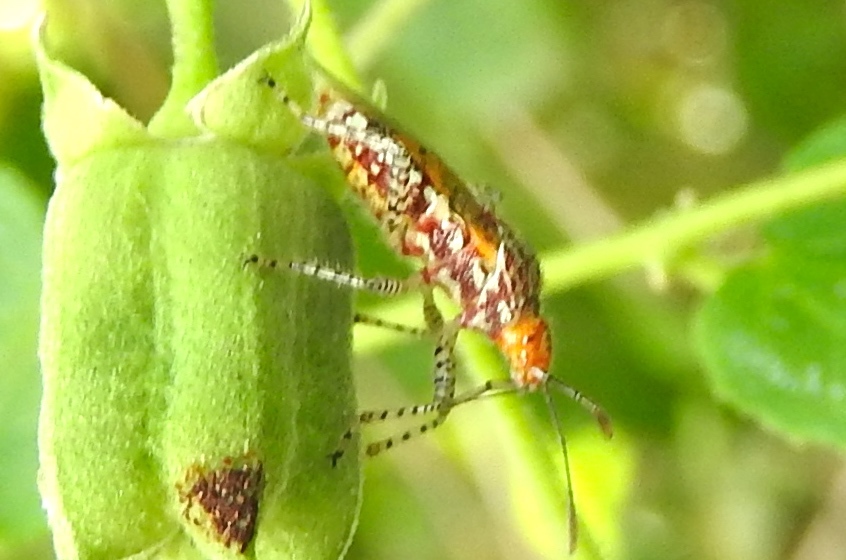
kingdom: Animalia
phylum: Arthropoda
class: Insecta
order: Hemiptera
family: Rhopalidae
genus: Niesthrea
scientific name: Niesthrea
